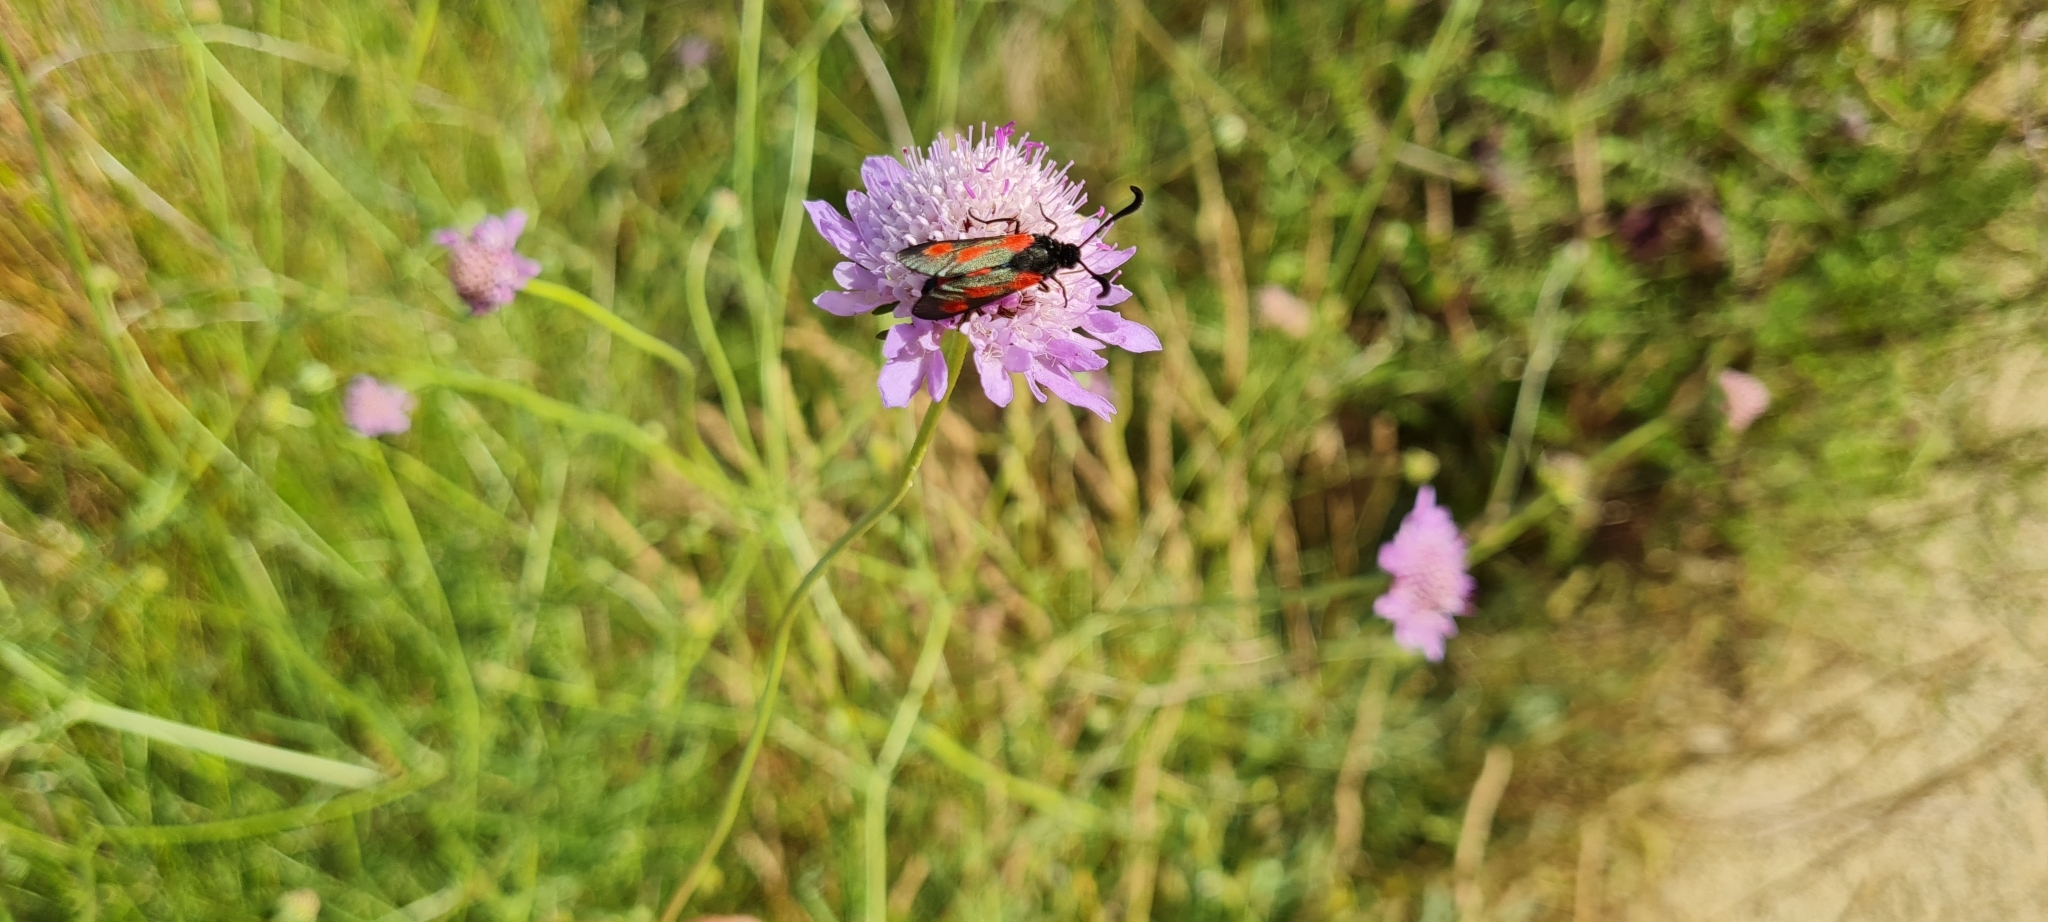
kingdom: Animalia
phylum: Arthropoda
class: Insecta
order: Lepidoptera
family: Zygaenidae
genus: Zygaena
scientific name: Zygaena sarpedon
